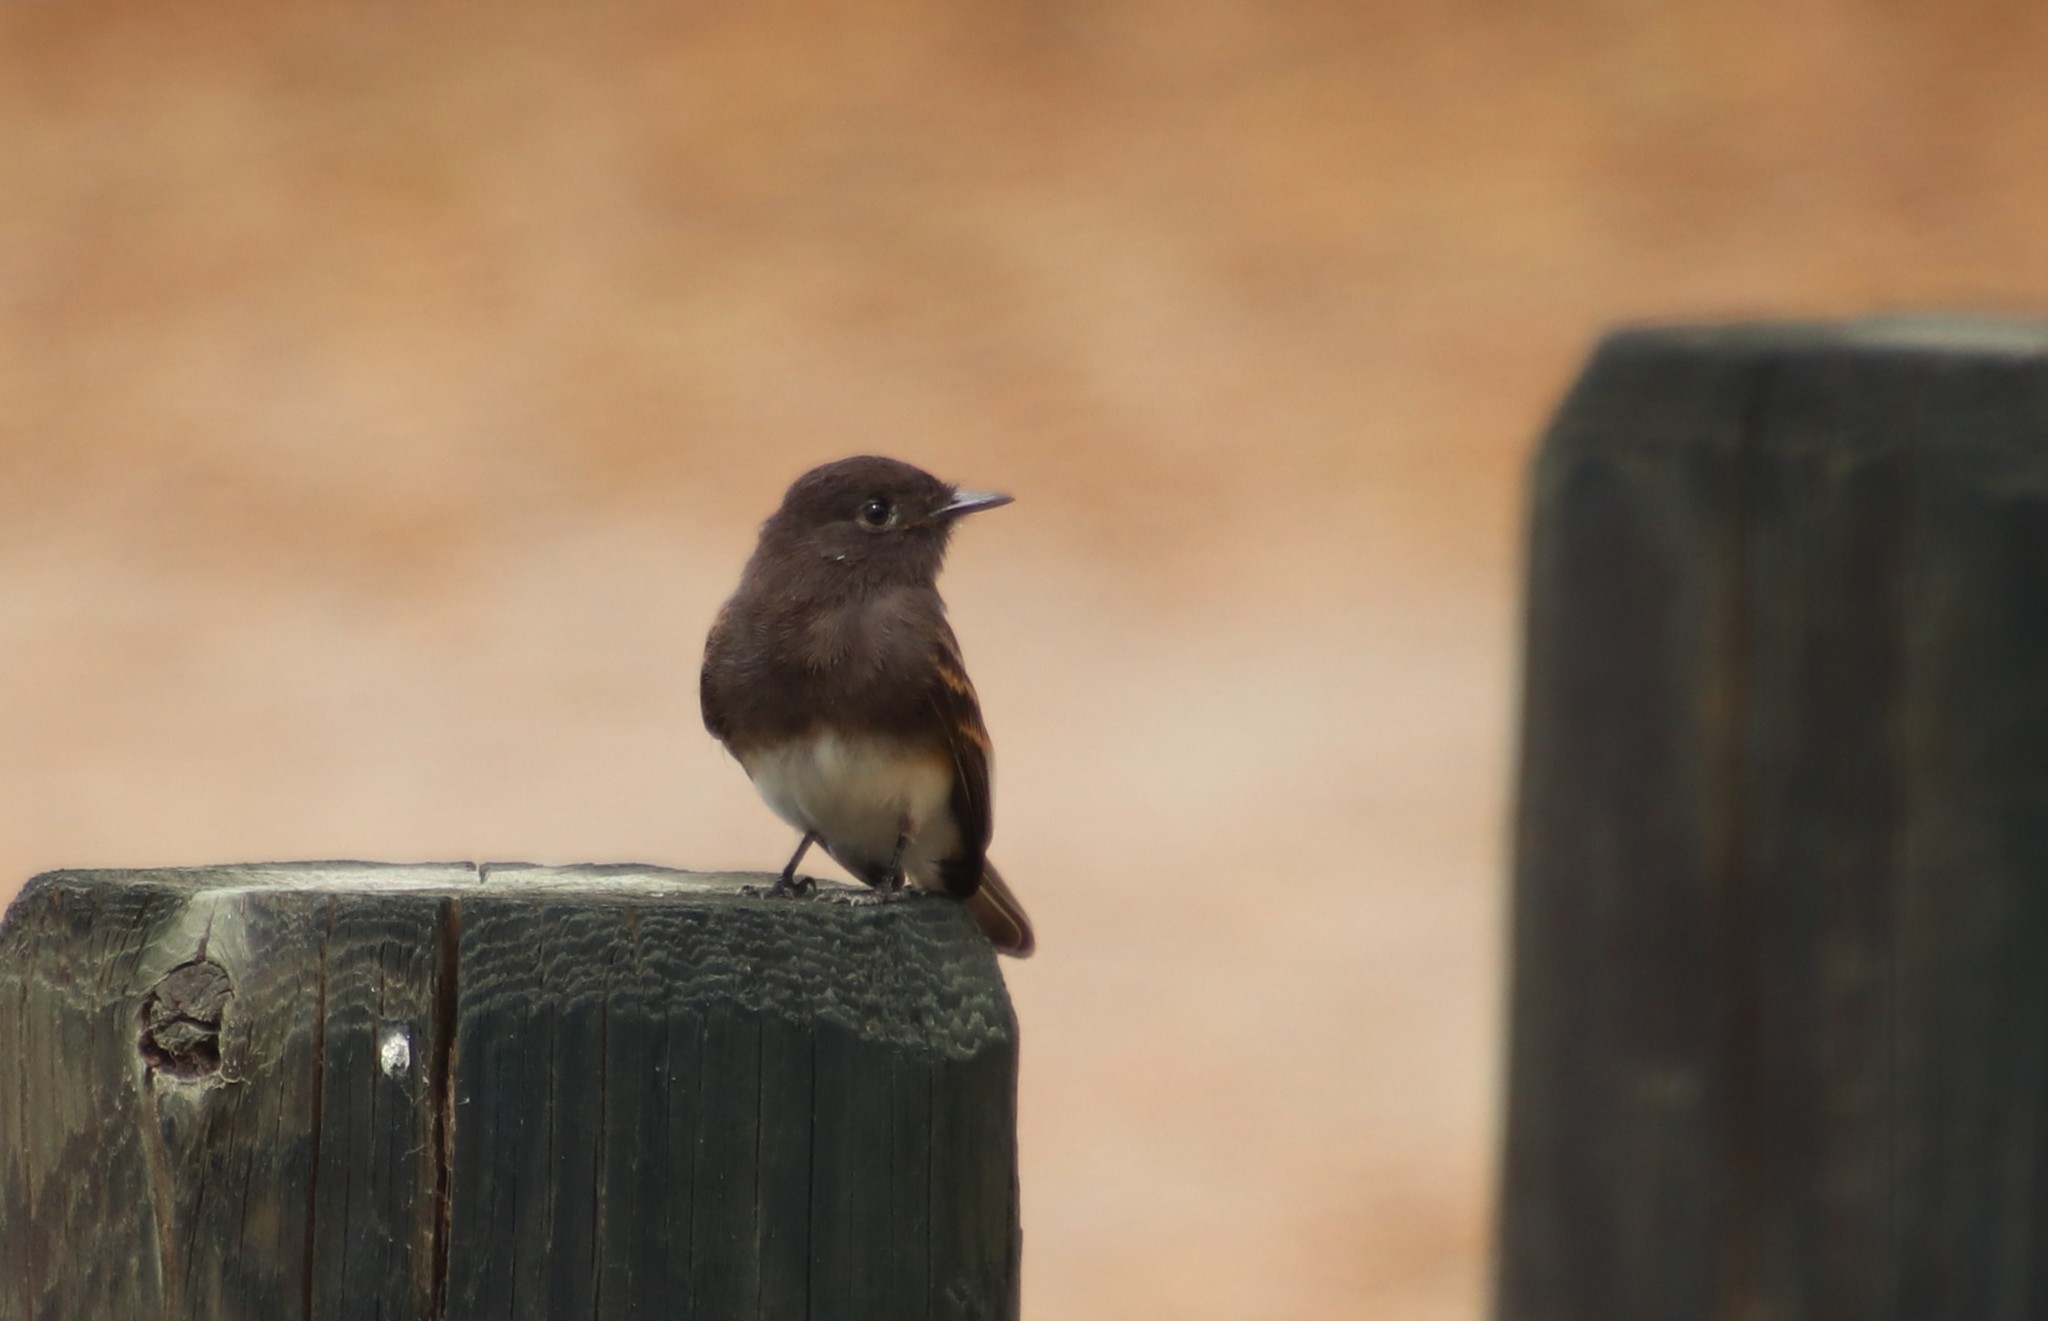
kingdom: Animalia
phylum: Chordata
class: Aves
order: Passeriformes
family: Tyrannidae
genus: Sayornis
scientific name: Sayornis nigricans
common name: Black phoebe
